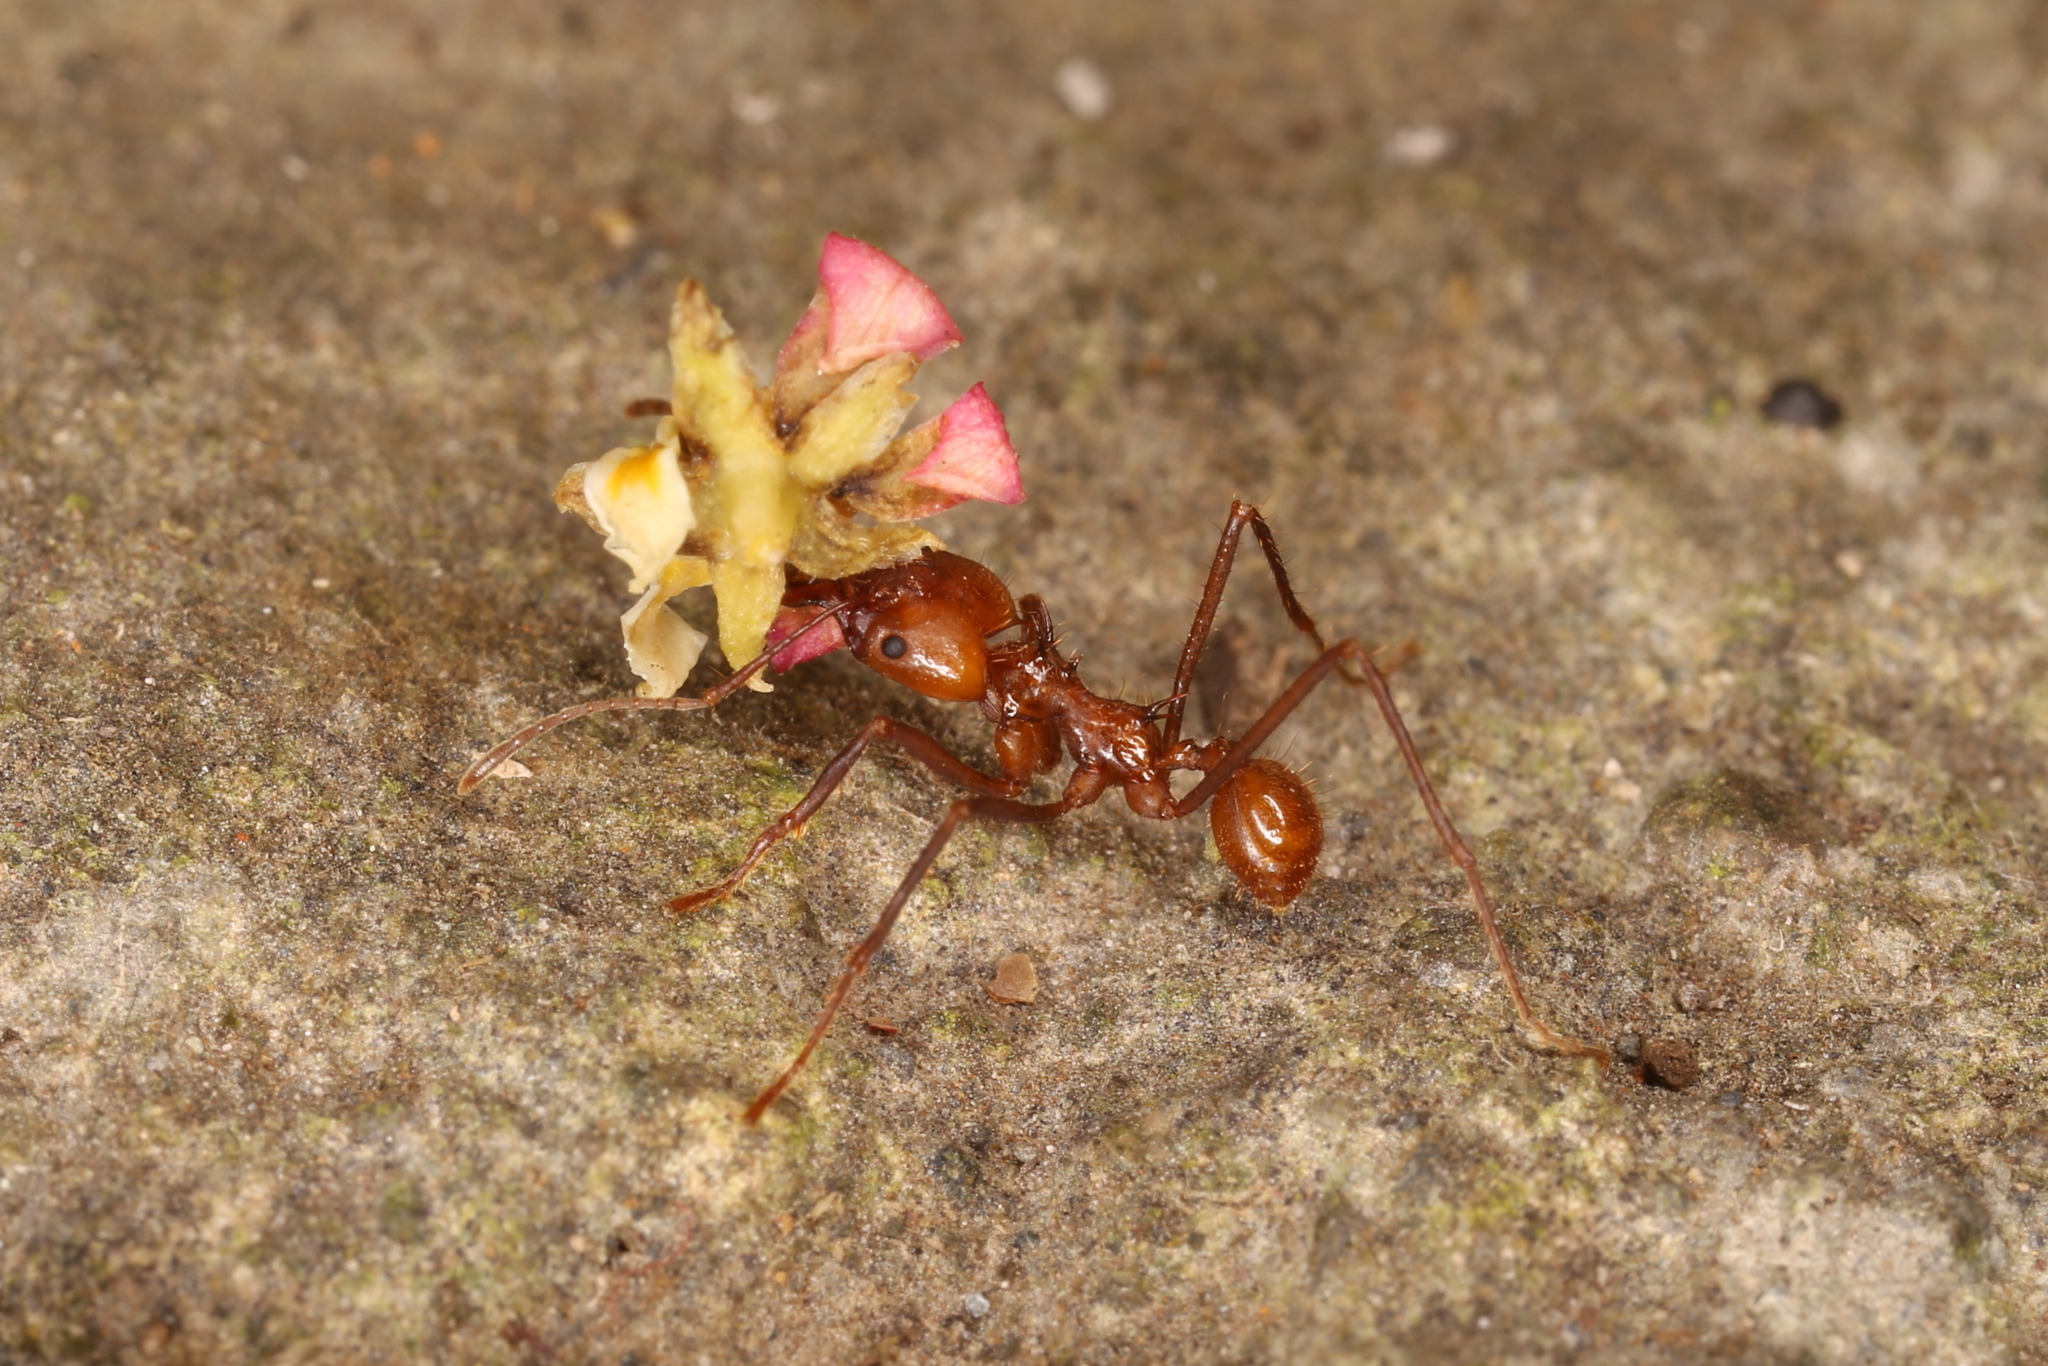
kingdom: Animalia
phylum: Arthropoda
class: Insecta
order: Hymenoptera
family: Formicidae
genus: Atta
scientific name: Atta cephalotes
